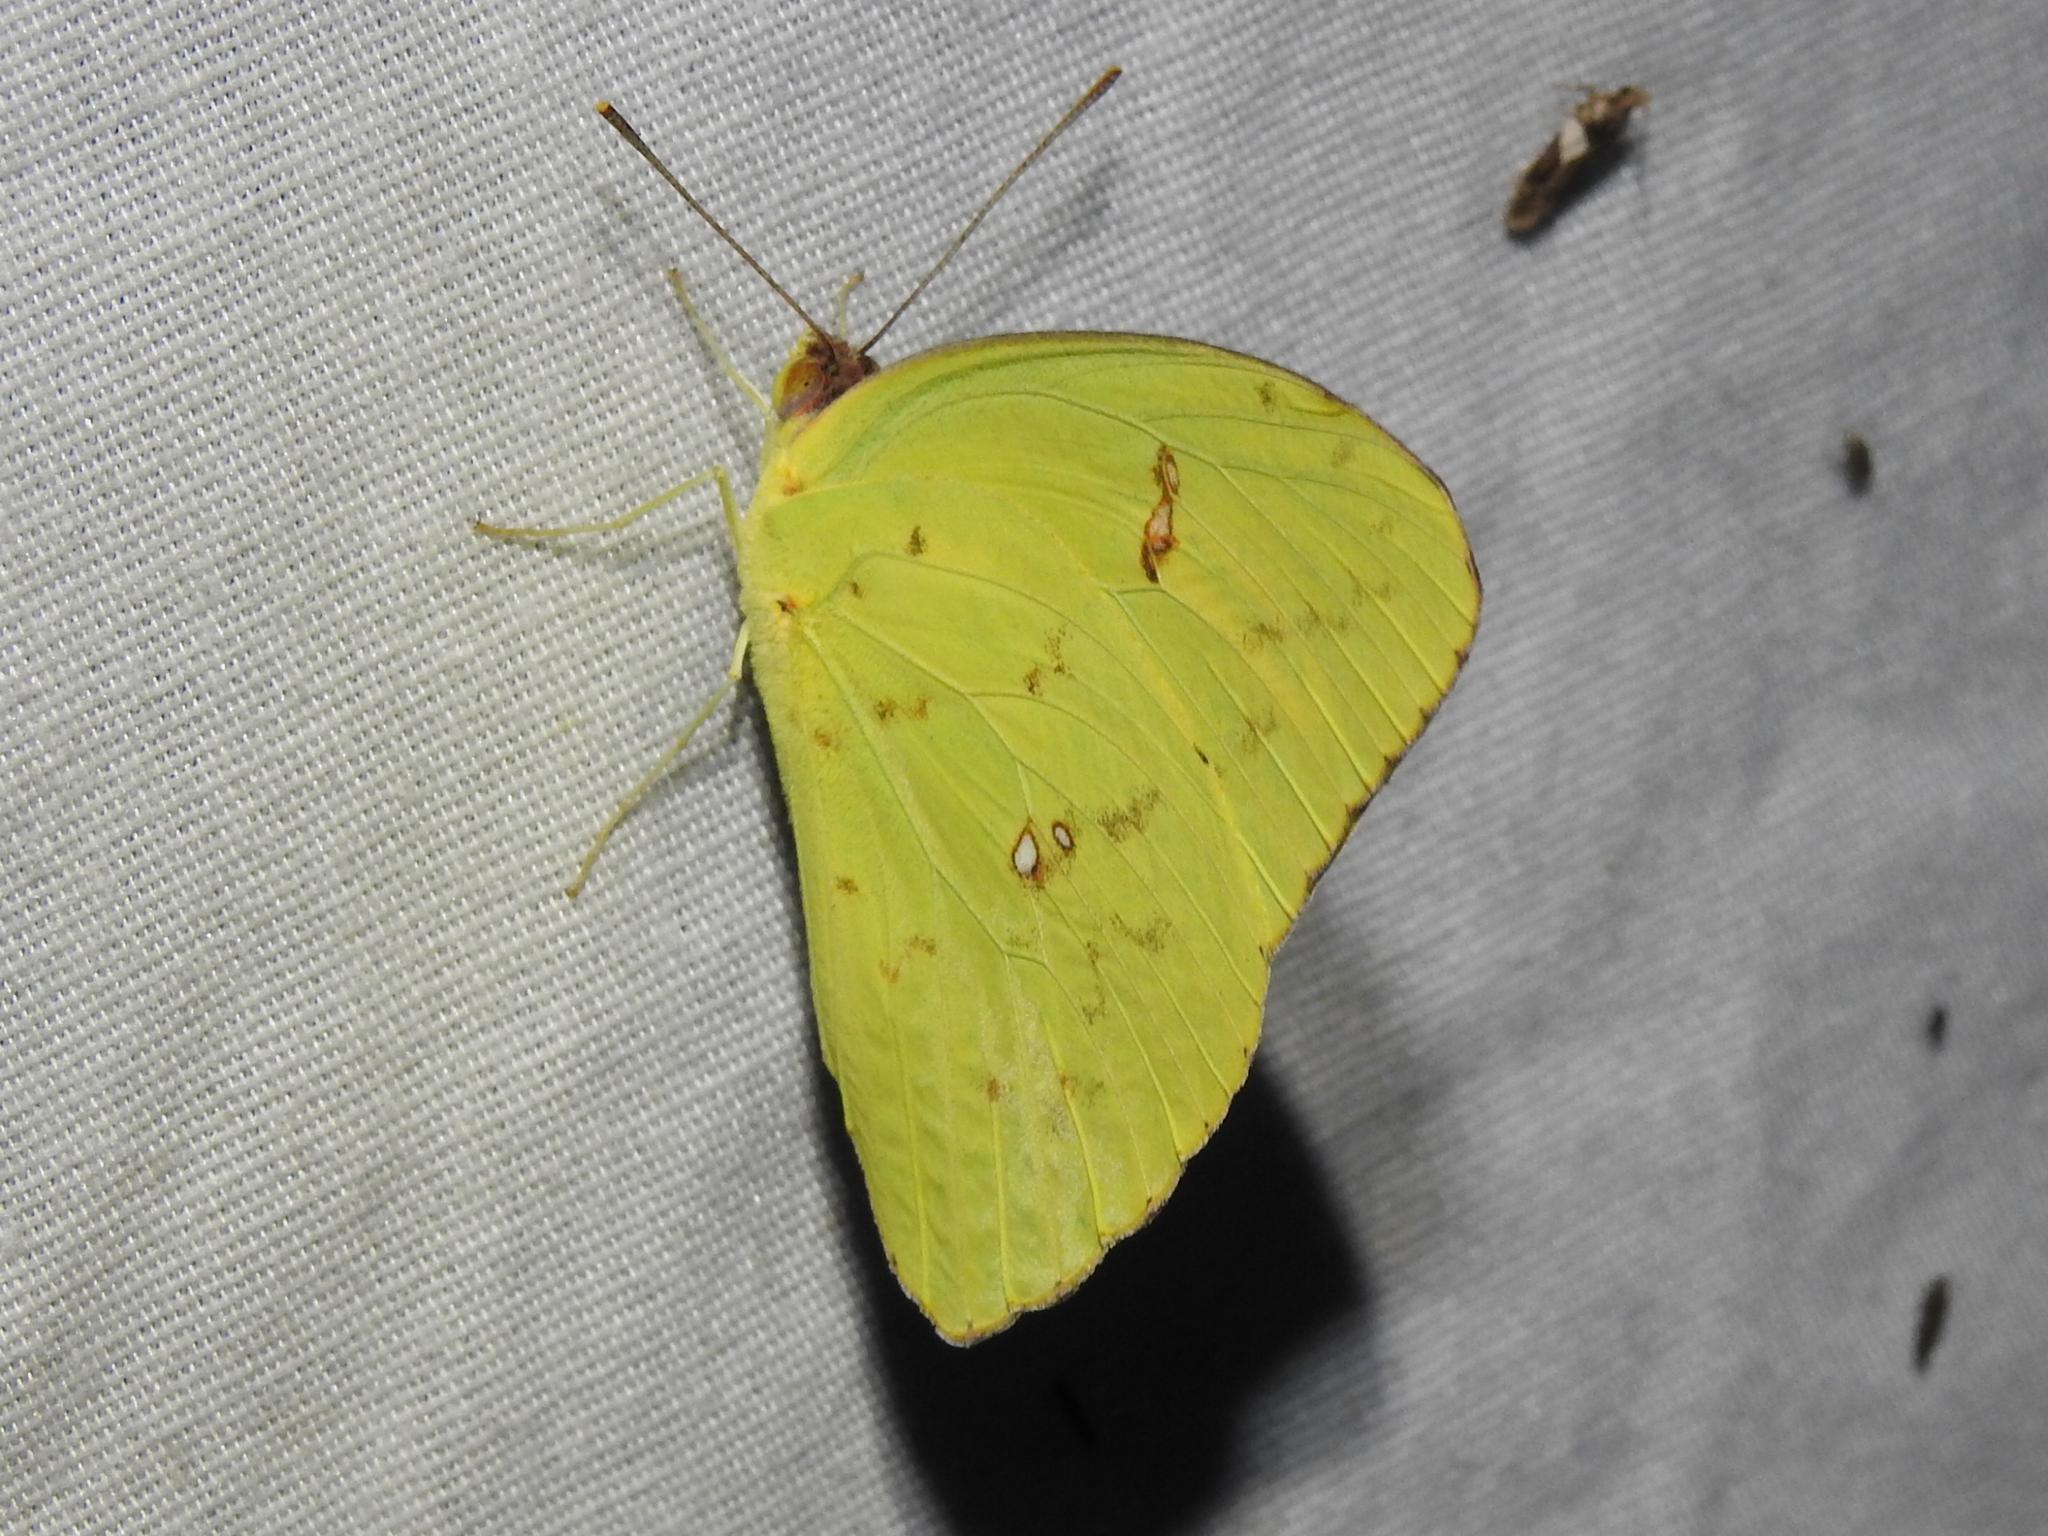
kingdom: Animalia
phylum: Arthropoda
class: Insecta
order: Lepidoptera
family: Pieridae
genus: Phoebis
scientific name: Phoebis sennae
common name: Cloudless sulphur
